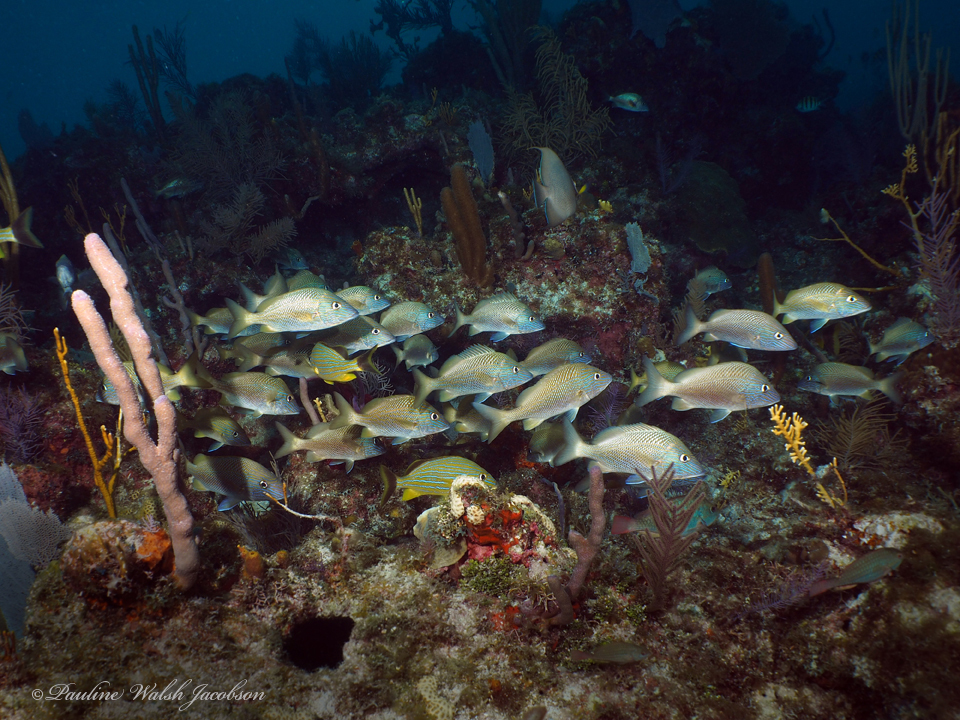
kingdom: Animalia
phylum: Chordata
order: Perciformes
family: Haemulidae
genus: Haemulon
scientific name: Haemulon plumierii
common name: White grunt
